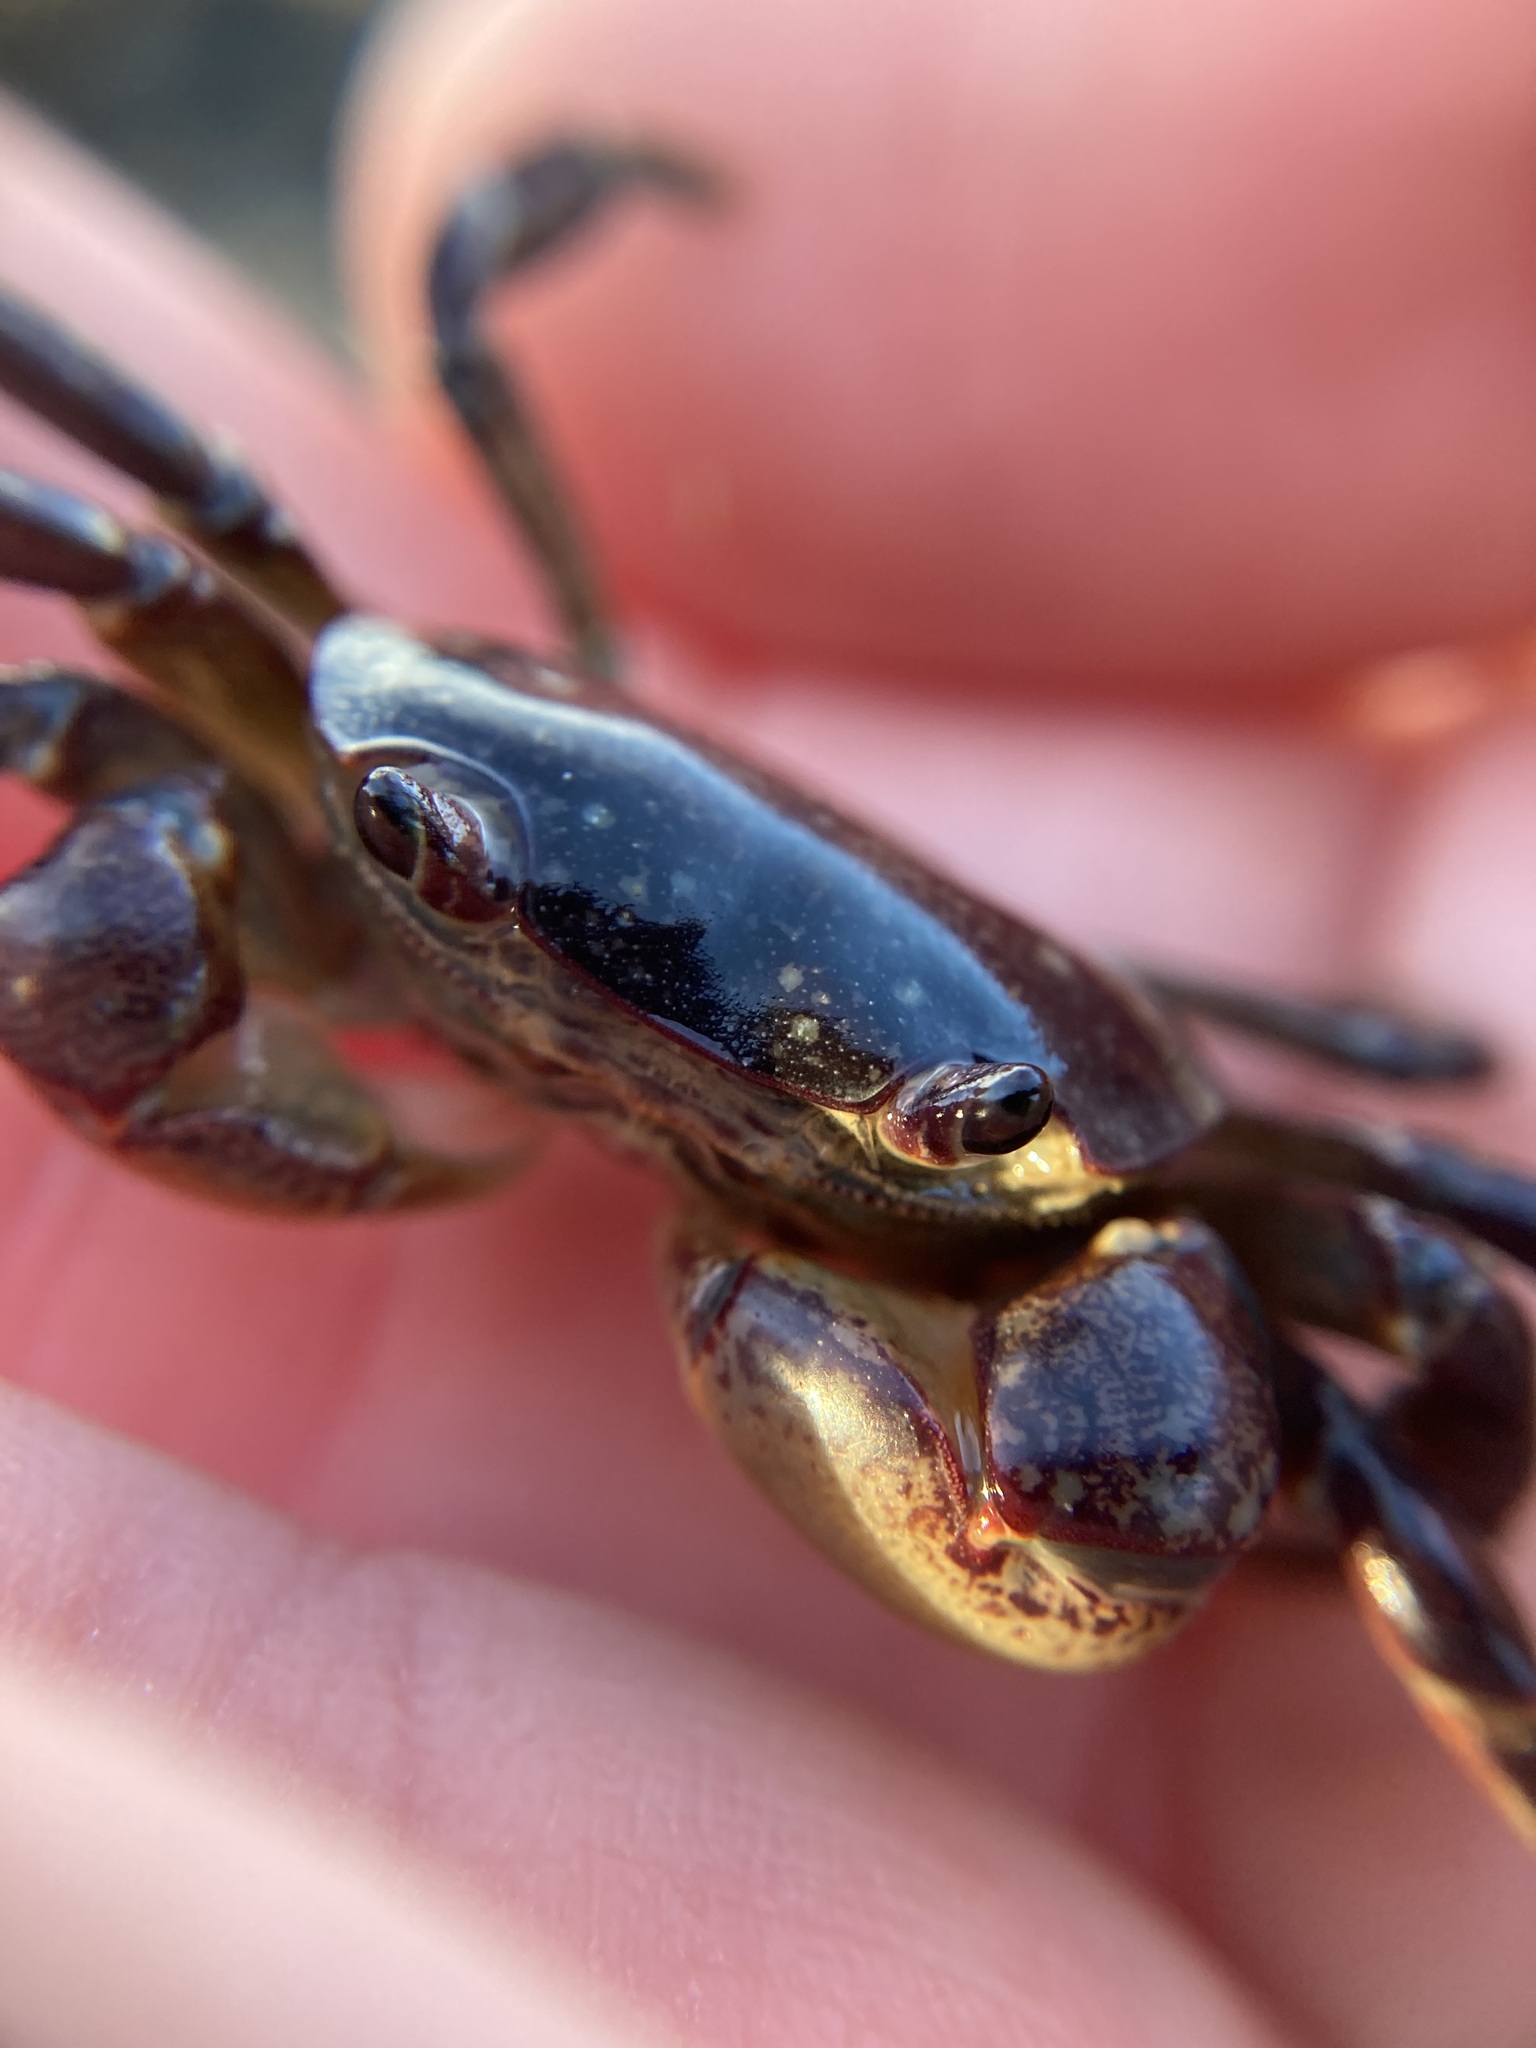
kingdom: Animalia
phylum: Arthropoda
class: Malacostraca
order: Decapoda
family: Varunidae
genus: Cyclograpsus
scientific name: Cyclograpsus lavauxi
